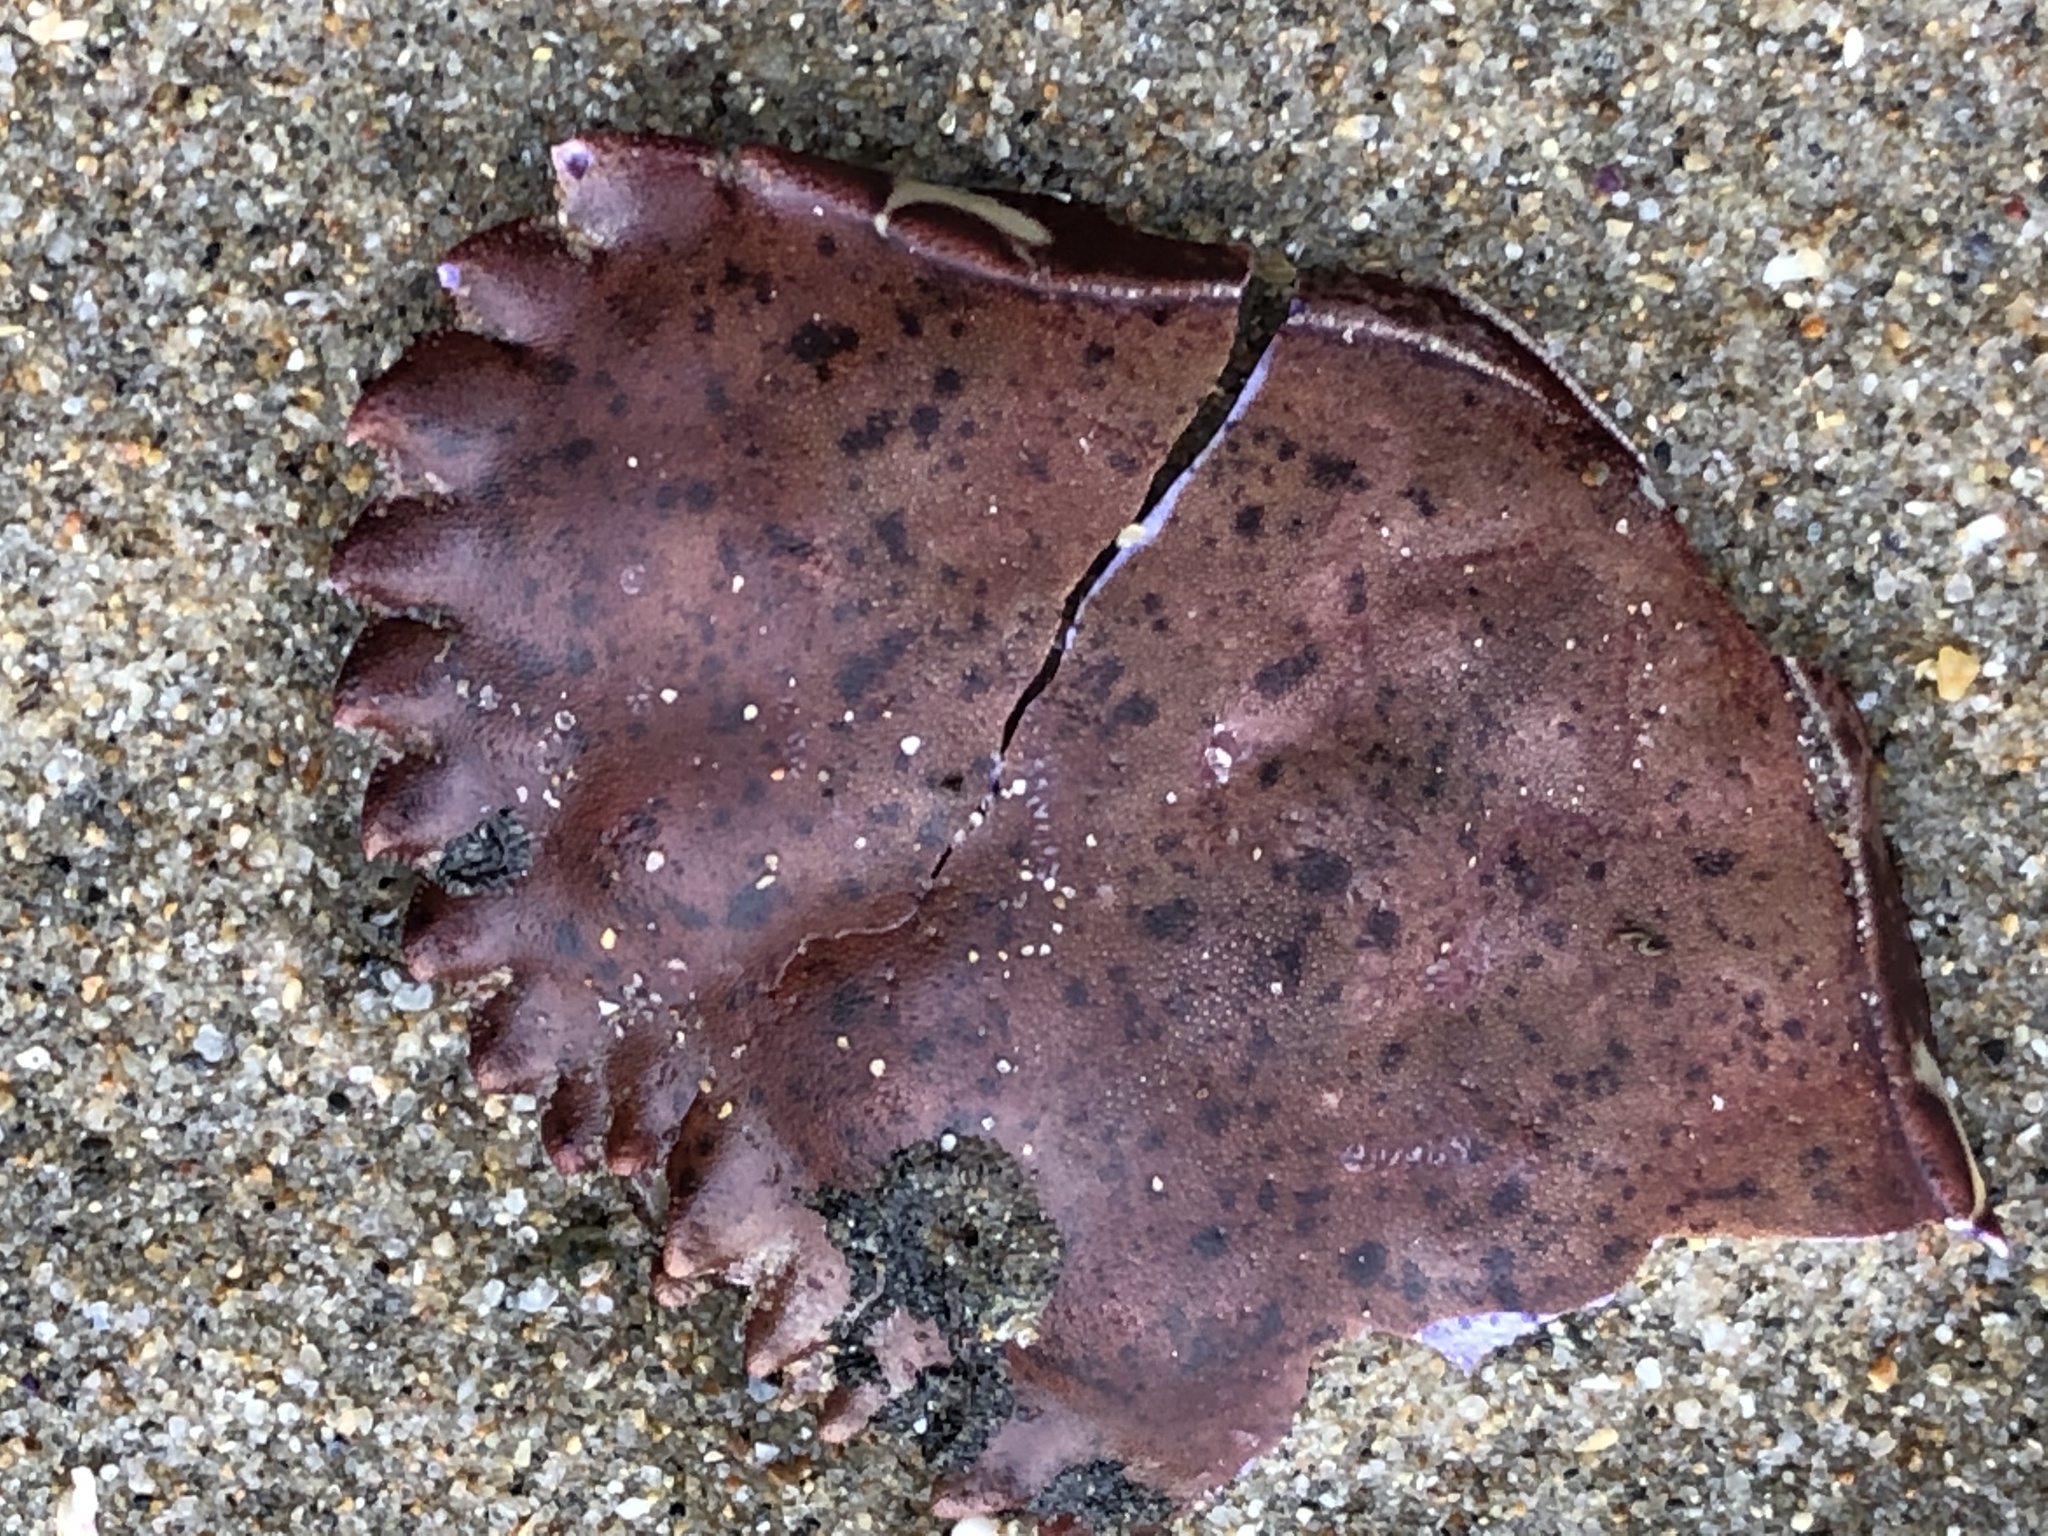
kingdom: Animalia
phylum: Arthropoda
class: Malacostraca
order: Decapoda
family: Cancridae
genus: Romaleon
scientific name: Romaleon antennarium
